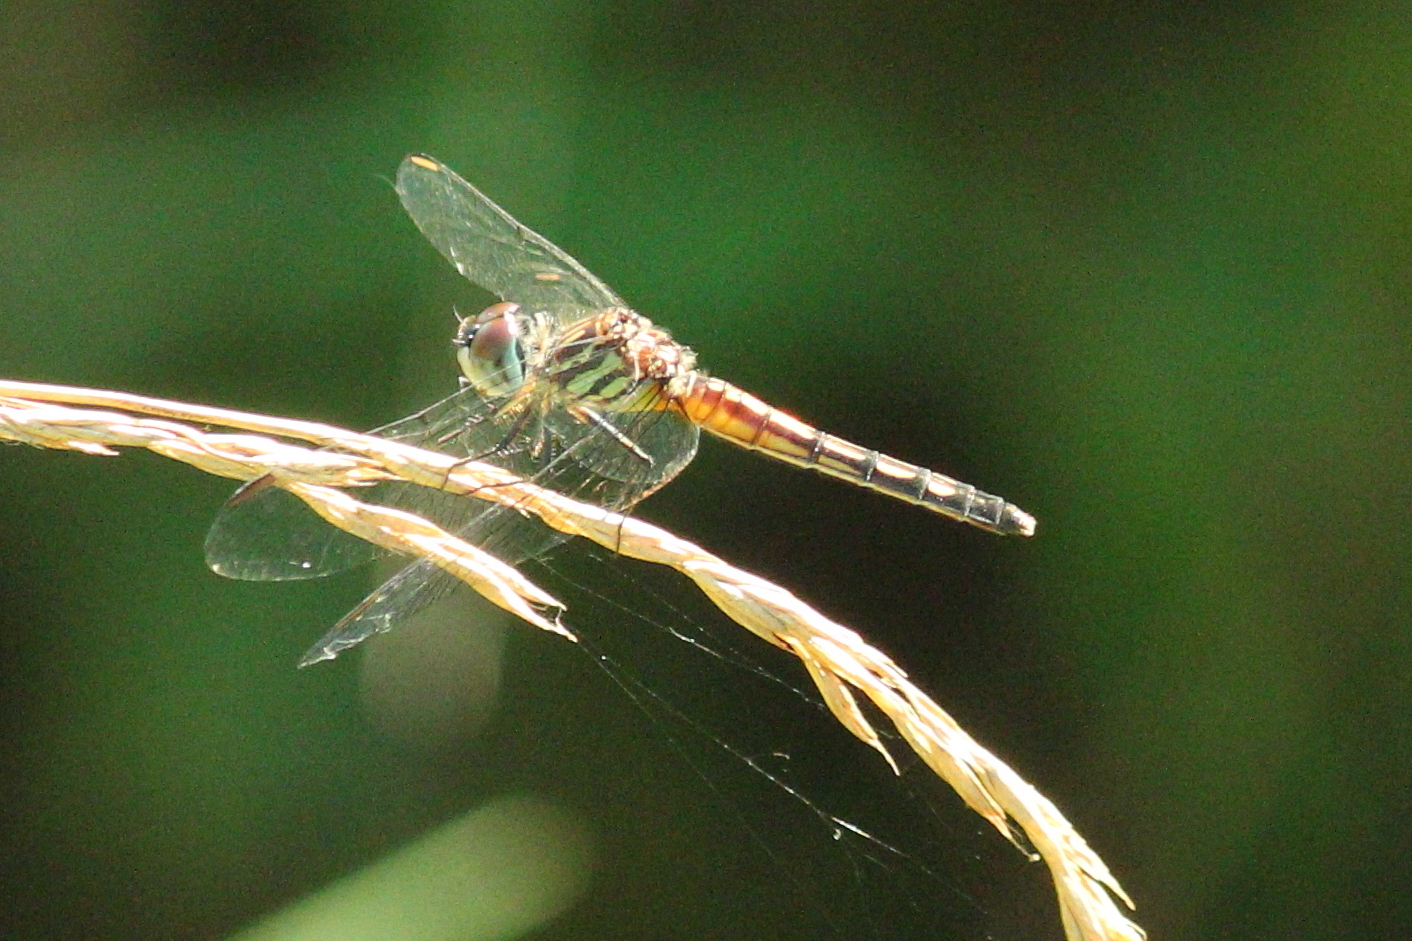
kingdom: Animalia
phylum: Arthropoda
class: Insecta
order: Odonata
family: Libellulidae
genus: Pachydiplax
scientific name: Pachydiplax longipennis
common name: Blue dasher
